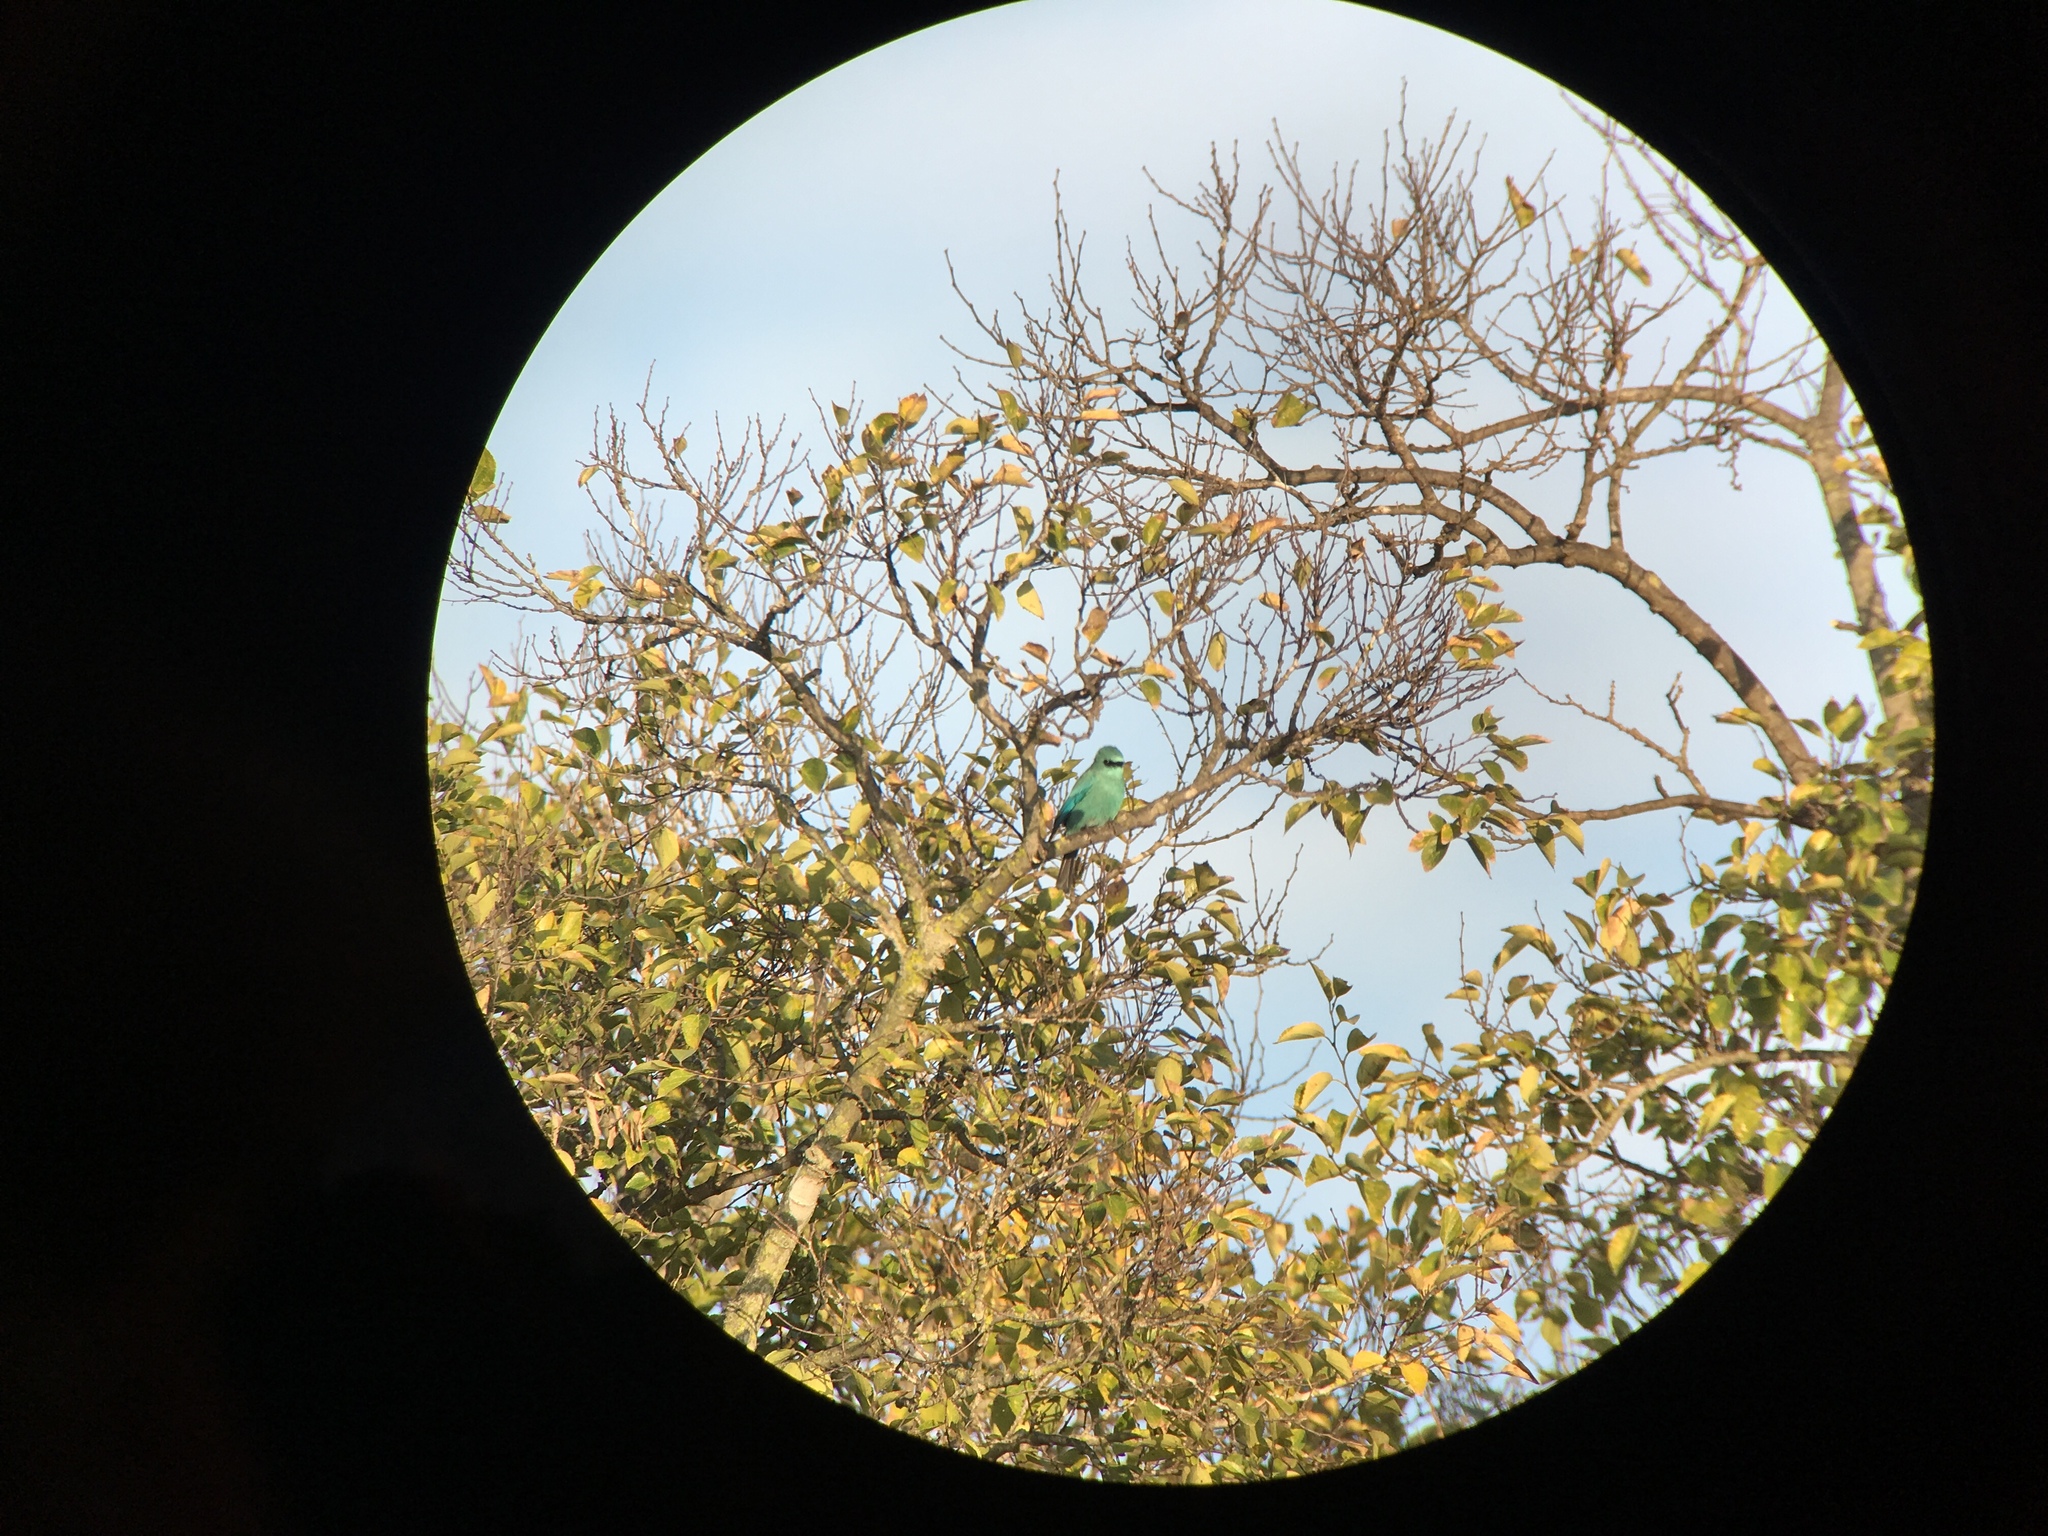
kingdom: Animalia
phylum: Chordata
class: Aves
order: Passeriformes
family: Muscicapidae
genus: Eumyias
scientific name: Eumyias thalassinus
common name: Verditer flycatcher
